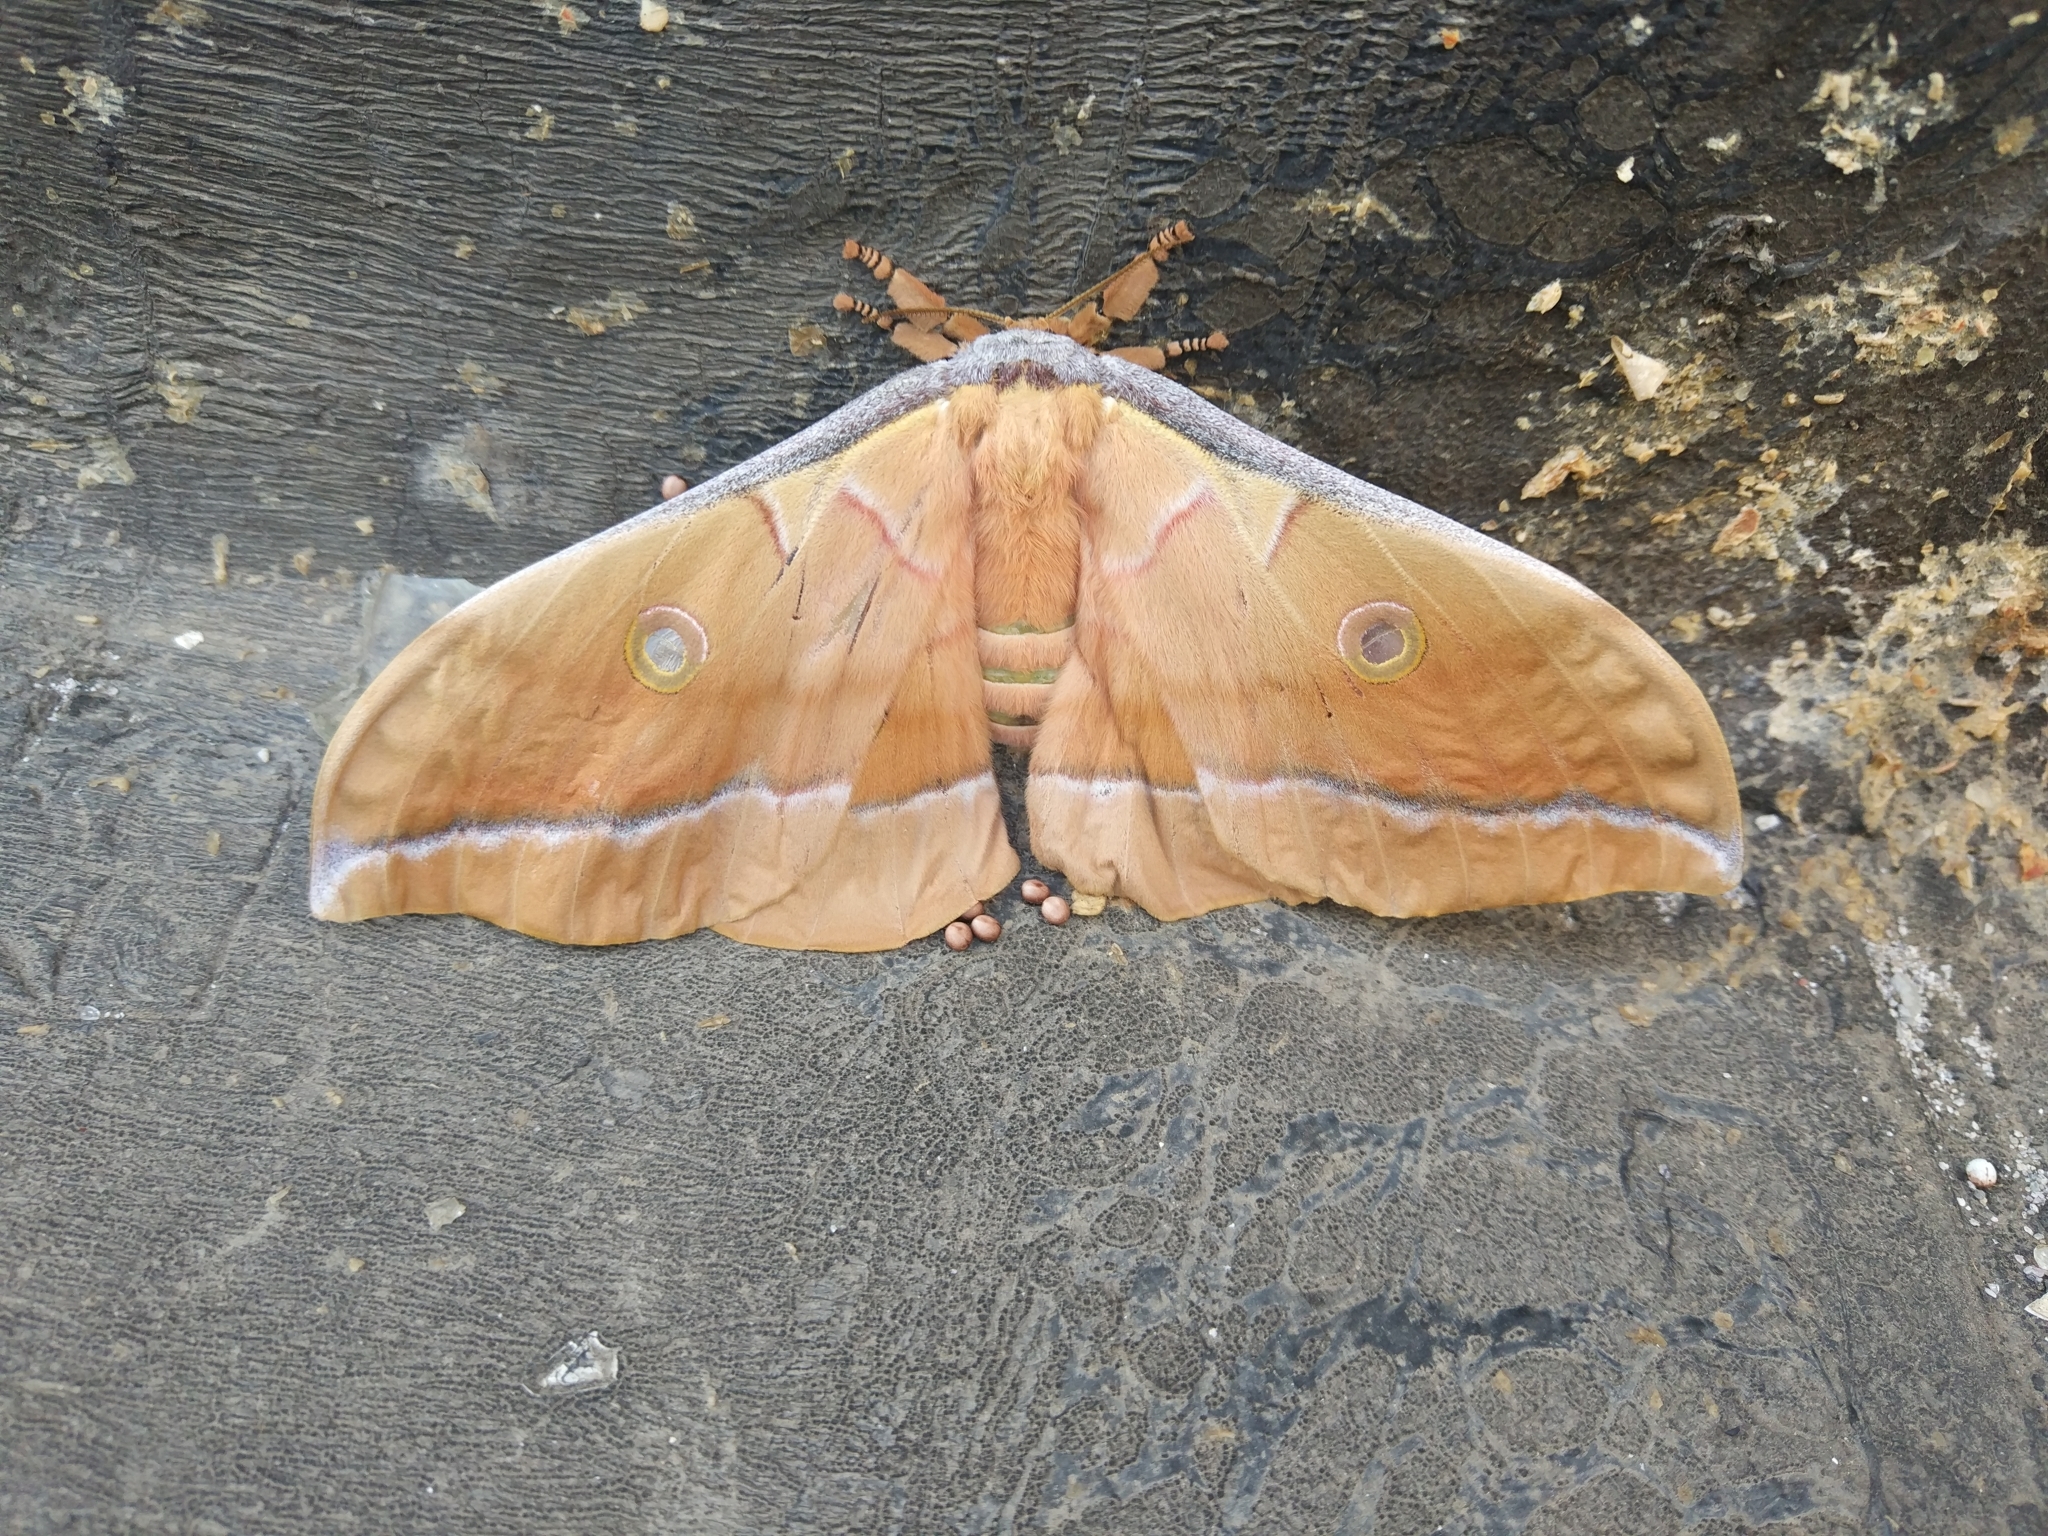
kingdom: Animalia
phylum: Arthropoda
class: Insecta
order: Lepidoptera
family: Saturniidae
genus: Antheraea
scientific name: Antheraea pernyi
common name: Chinese oak silk moth
